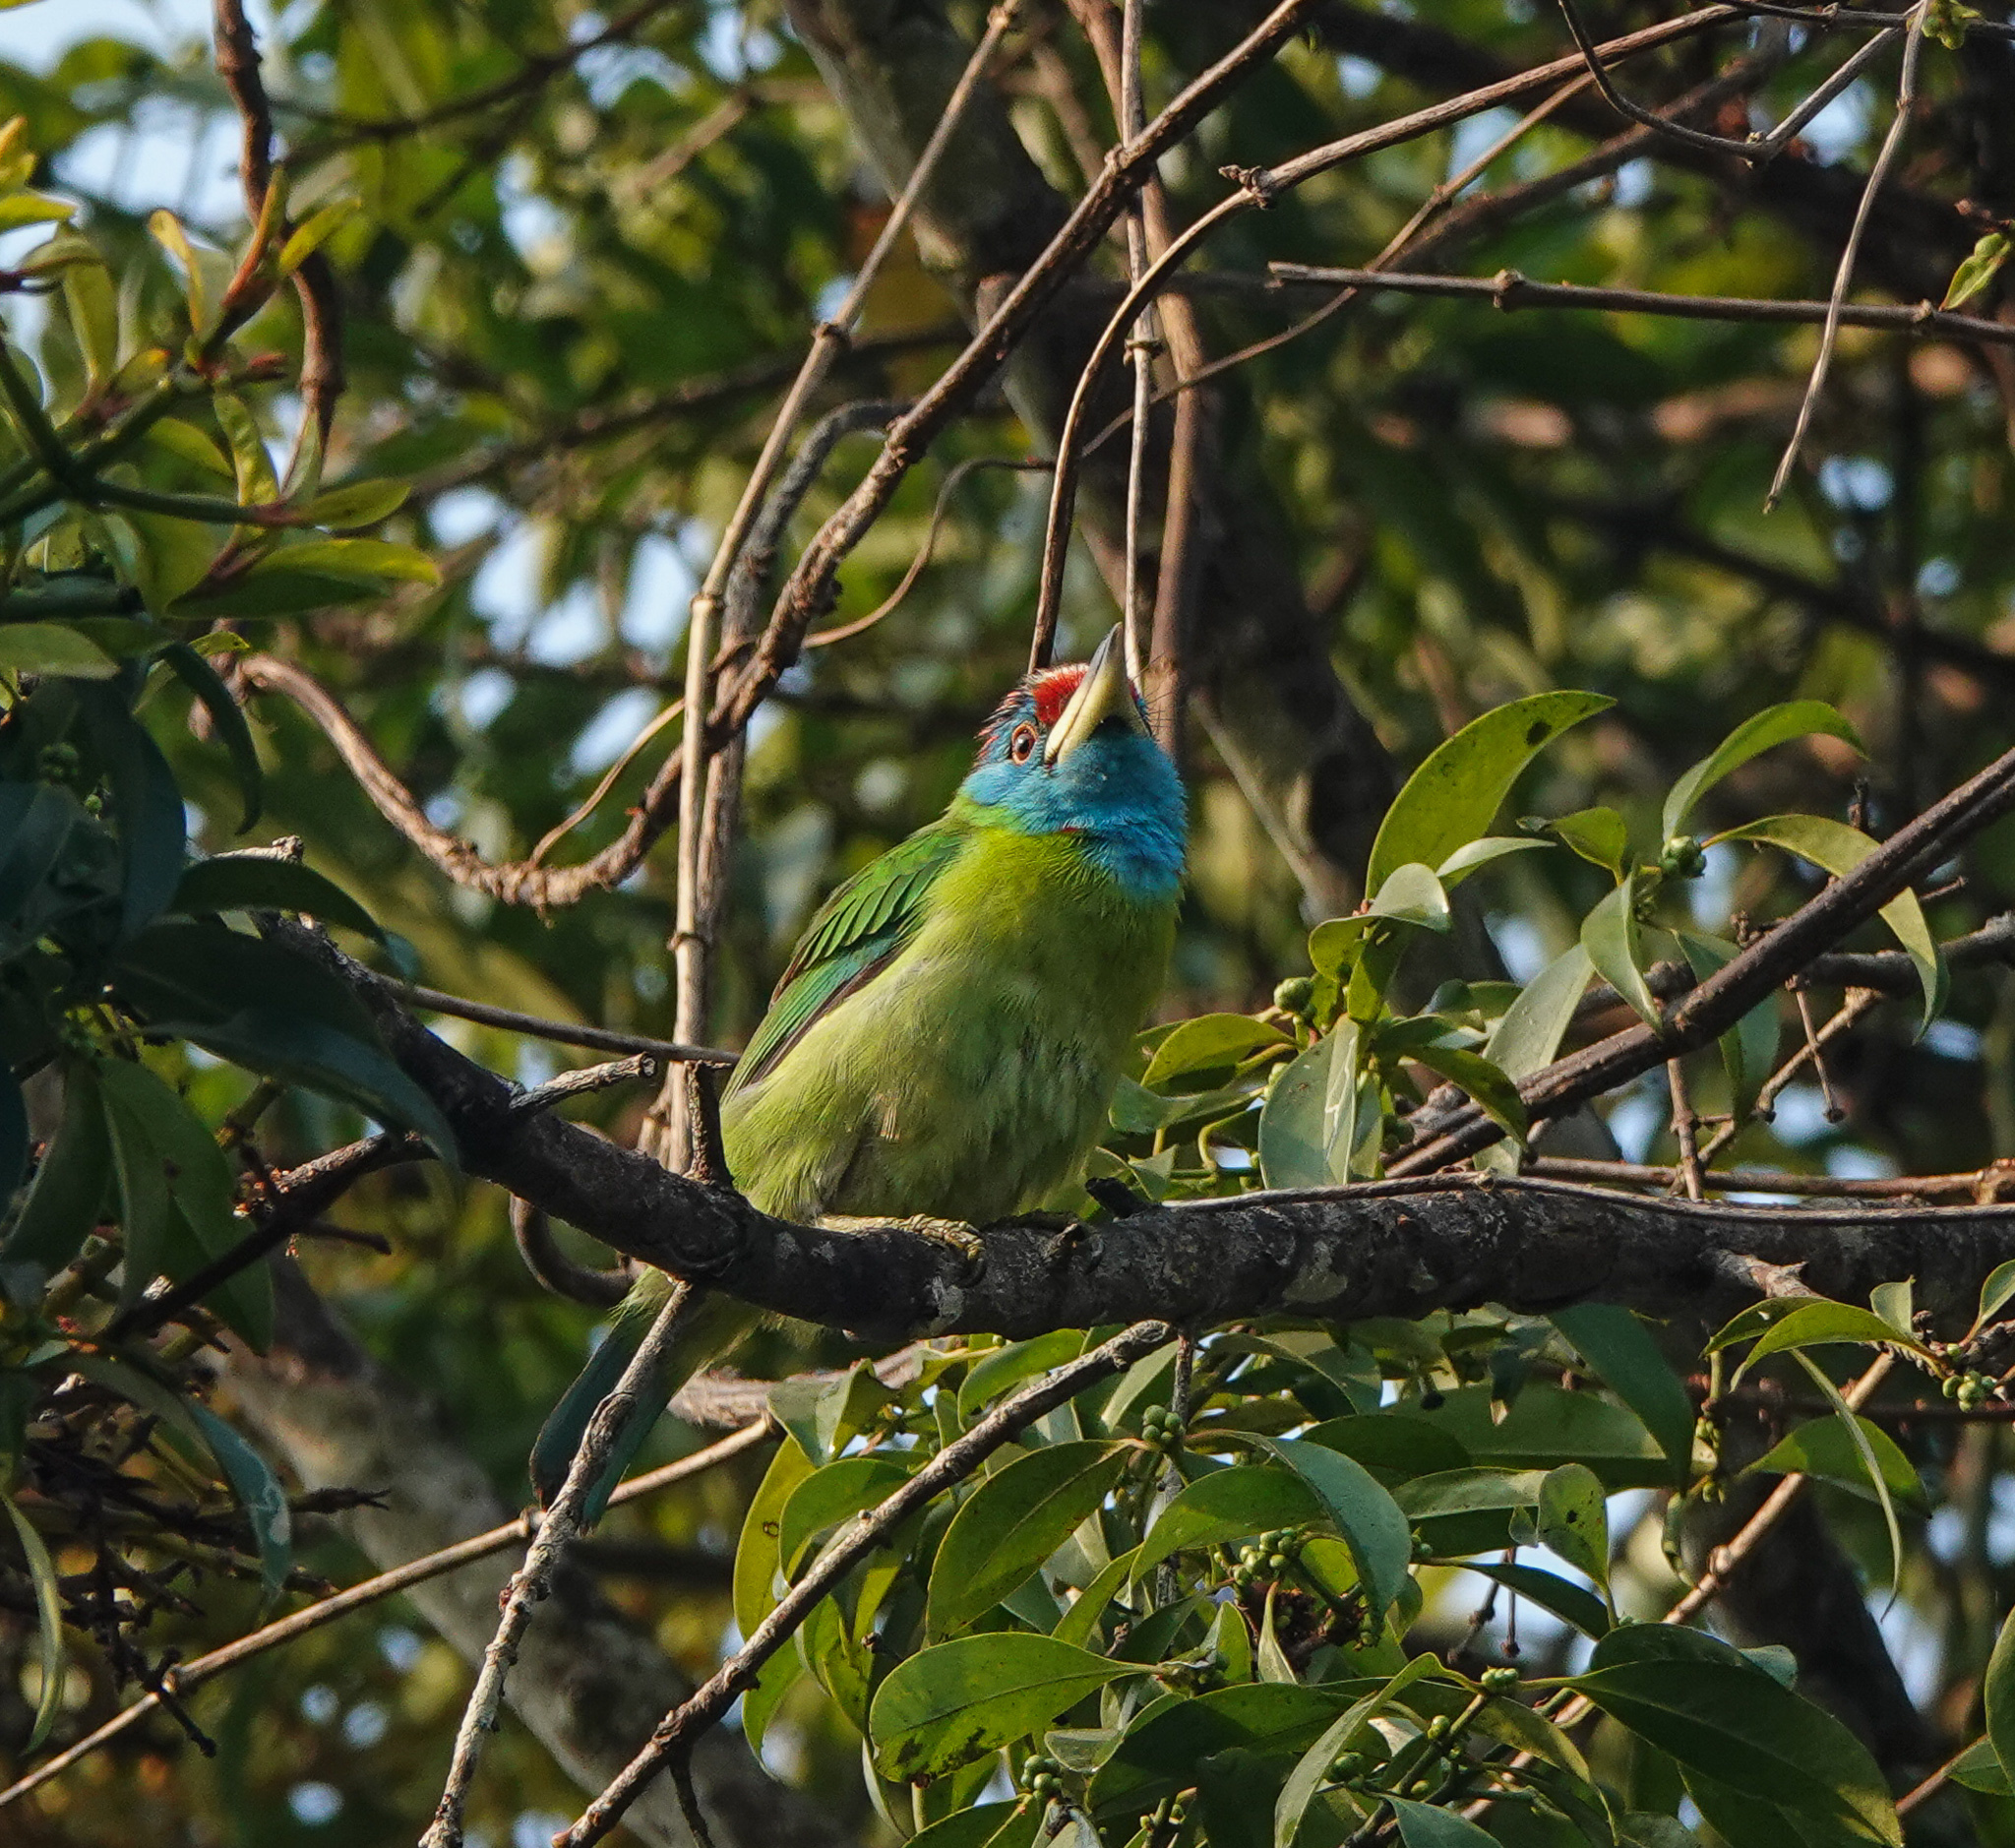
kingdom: Animalia
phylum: Chordata
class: Aves
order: Piciformes
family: Megalaimidae
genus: Psilopogon
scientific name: Psilopogon asiaticus
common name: Blue-throated barbet
